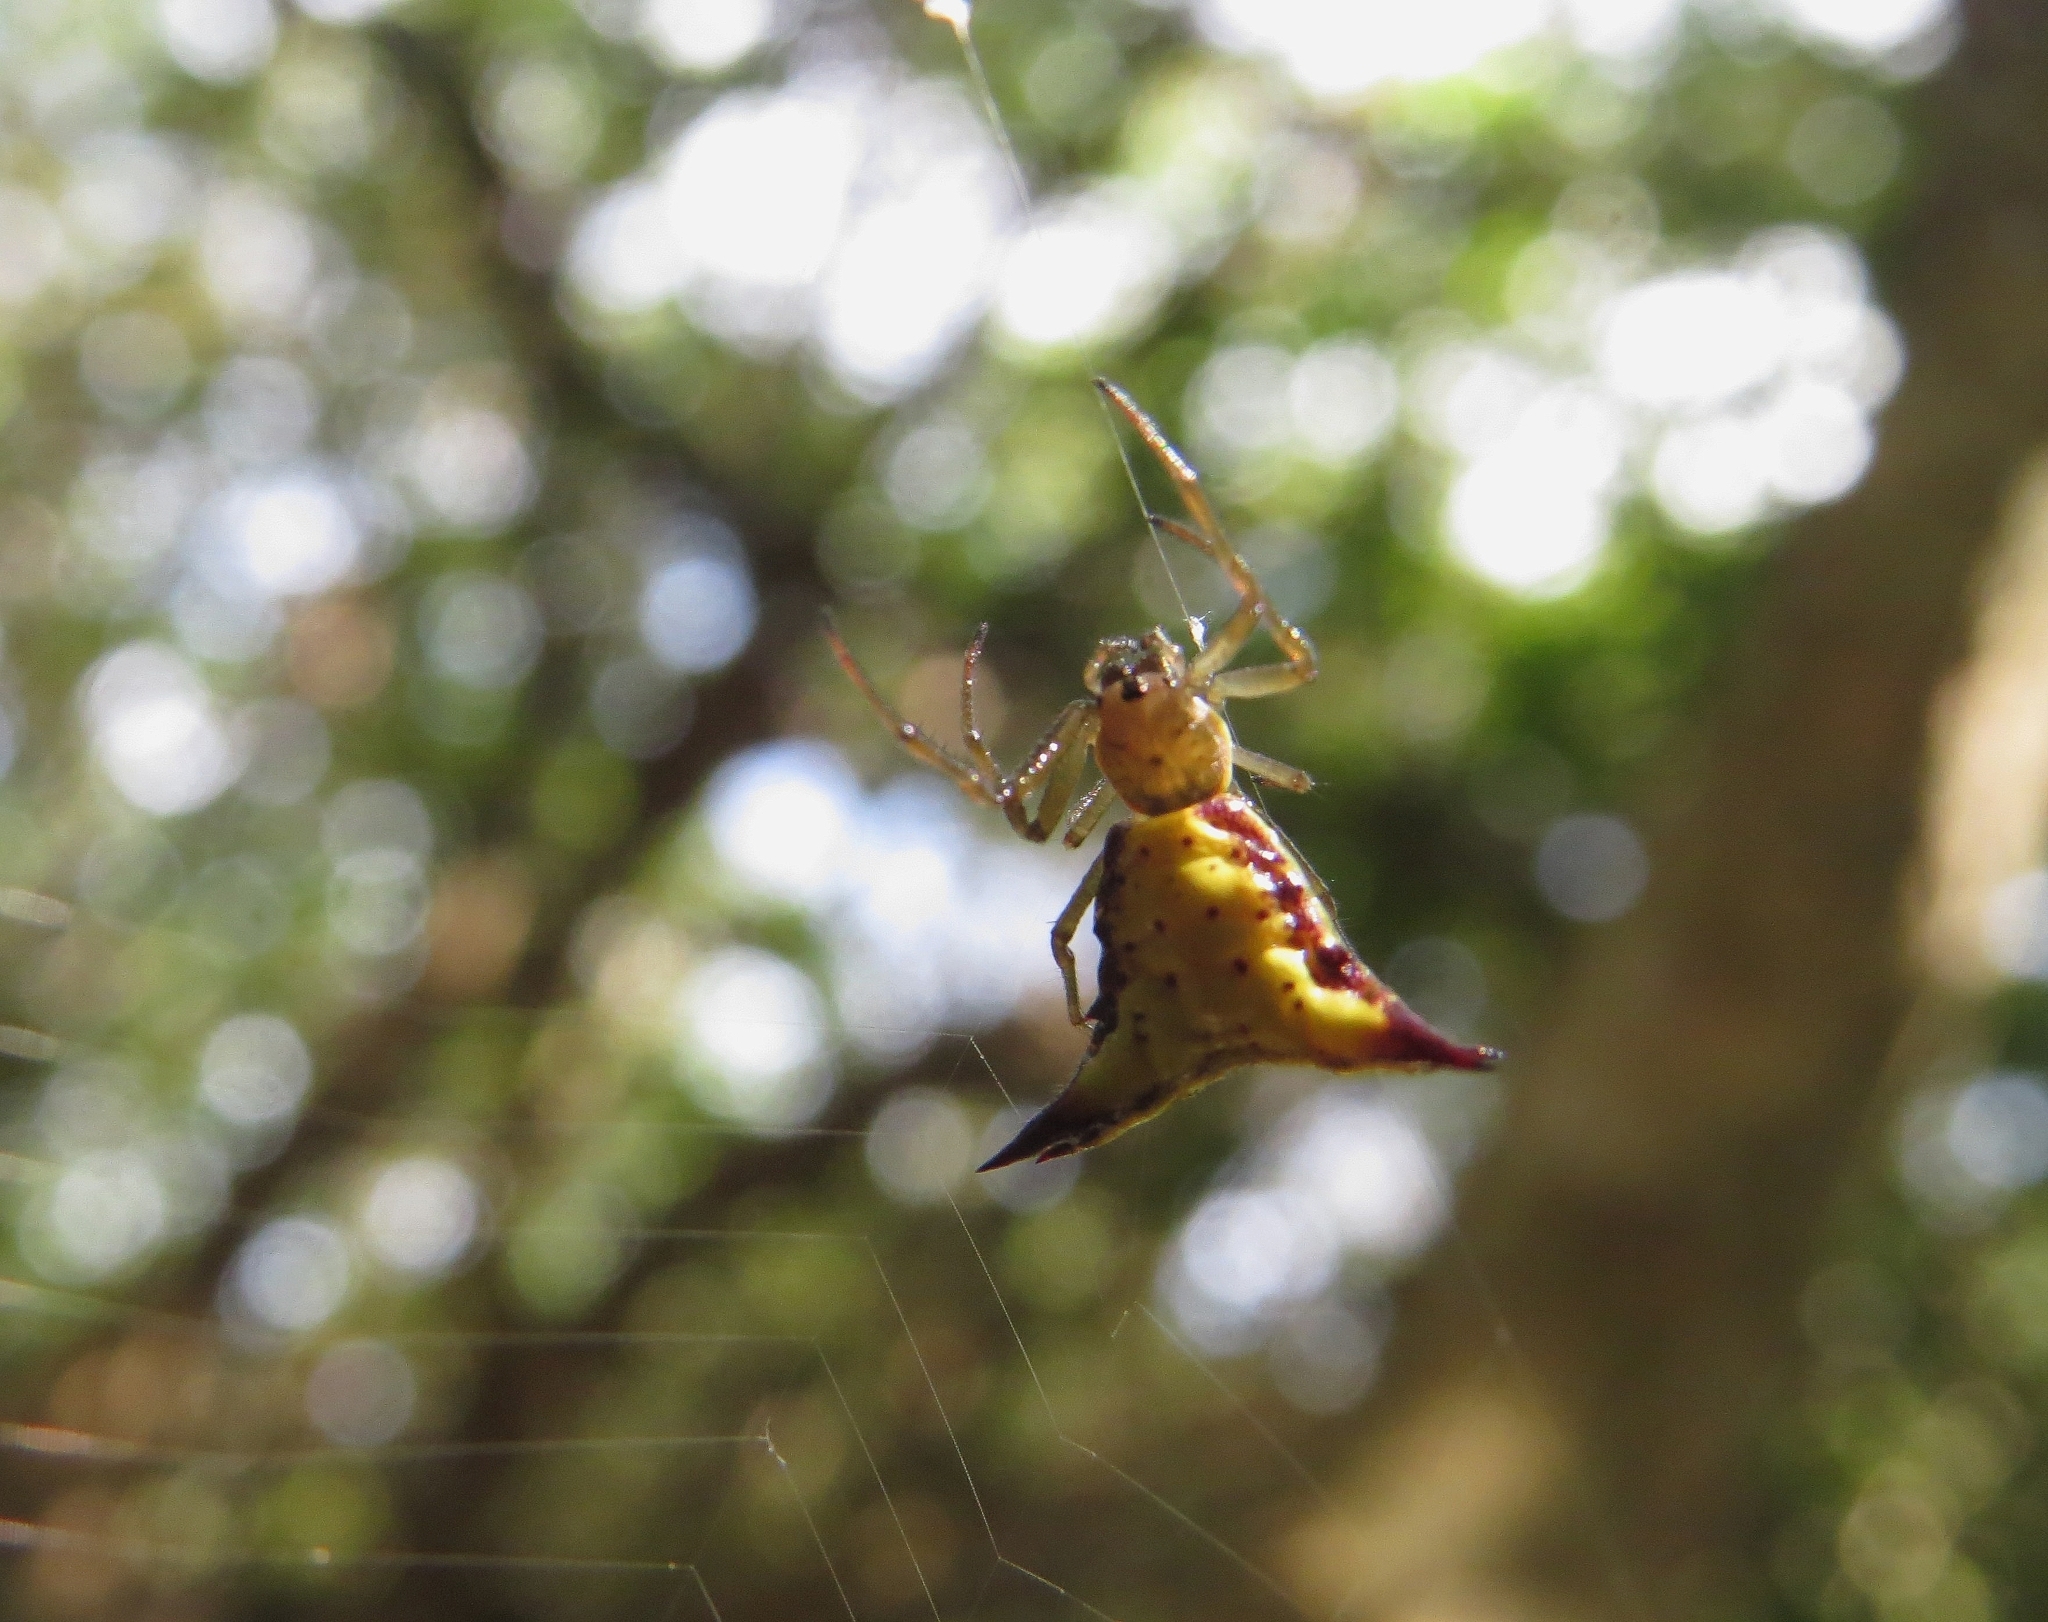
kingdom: Animalia
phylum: Arthropoda
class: Arachnida
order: Araneae
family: Araneidae
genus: Micrathena
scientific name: Micrathena furva
